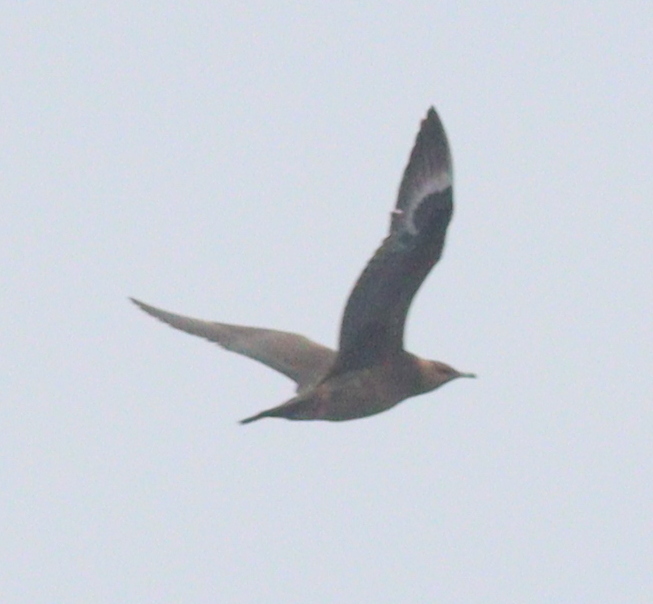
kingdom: Animalia
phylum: Chordata
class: Aves
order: Charadriiformes
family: Stercorariidae
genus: Stercorarius
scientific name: Stercorarius parasiticus
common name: Parasitic jaeger
